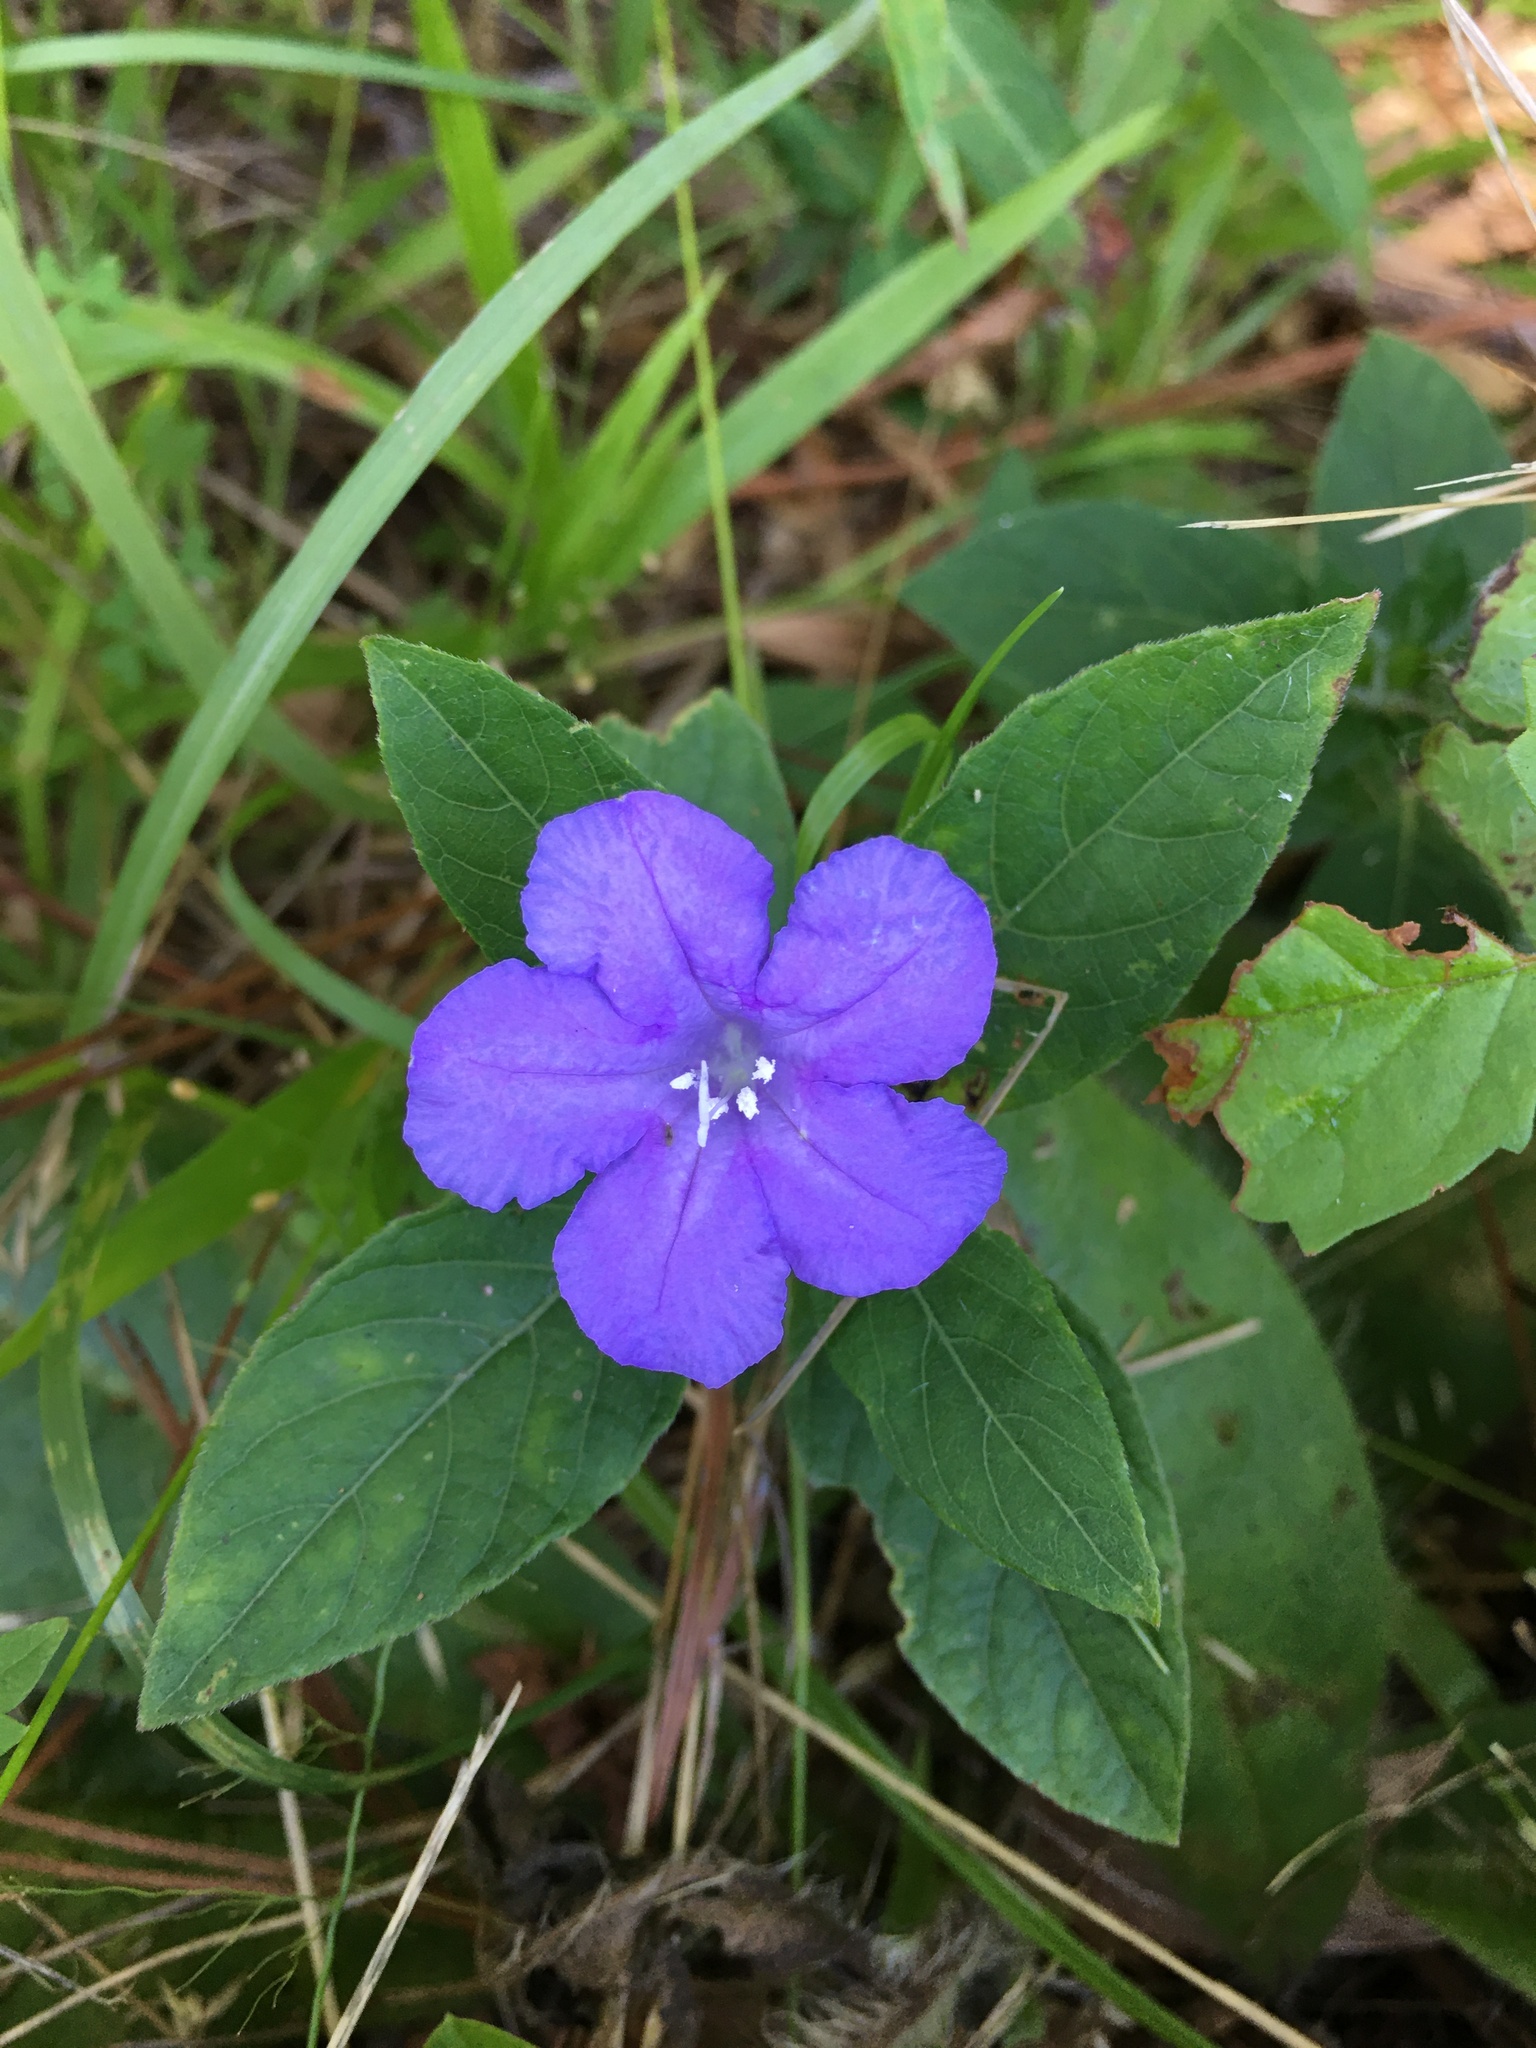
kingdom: Plantae
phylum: Tracheophyta
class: Magnoliopsida
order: Lamiales
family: Acanthaceae
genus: Ruellia
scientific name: Ruellia caroliniensis
